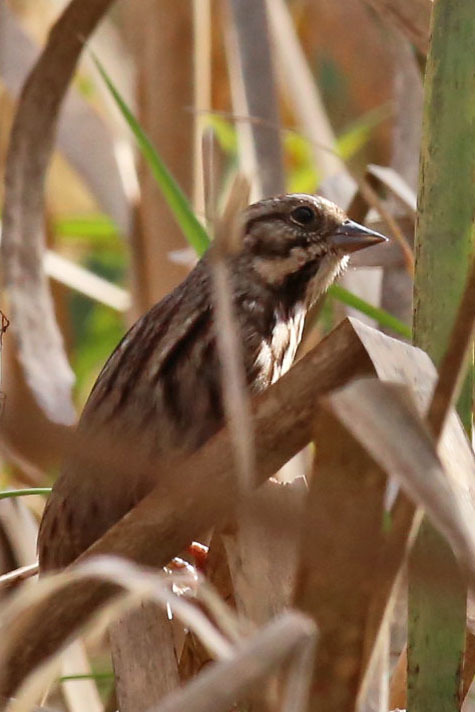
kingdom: Animalia
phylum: Chordata
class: Aves
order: Passeriformes
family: Passerellidae
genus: Melospiza
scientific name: Melospiza melodia
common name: Song sparrow
